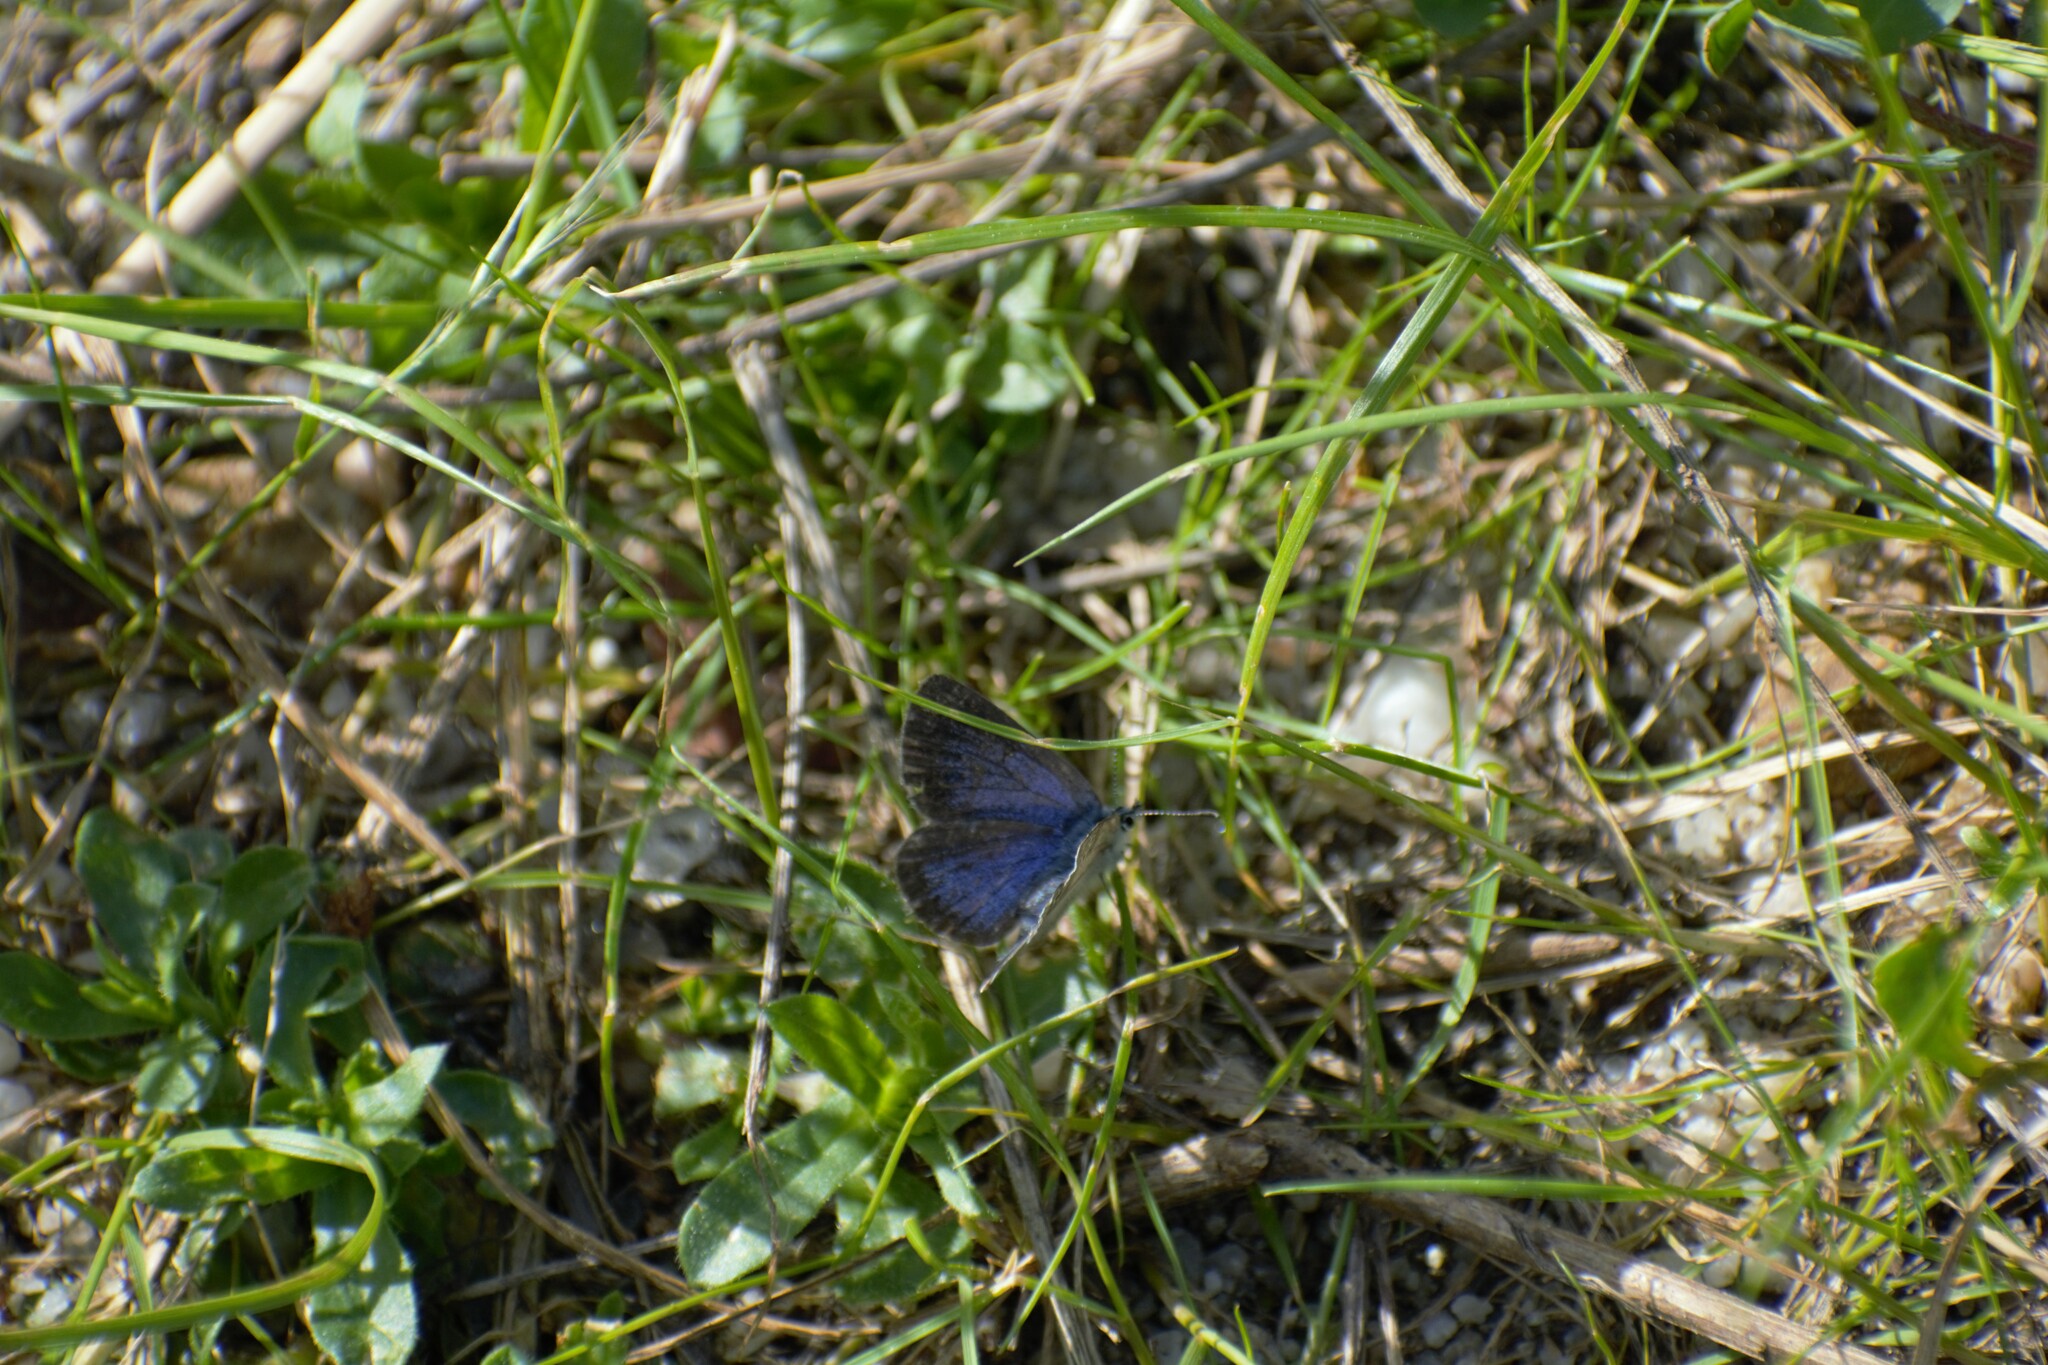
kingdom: Animalia
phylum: Arthropoda
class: Insecta
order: Lepidoptera
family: Lycaenidae
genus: Glaucopsyche
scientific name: Glaucopsyche melanops
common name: Black-eyed blue
